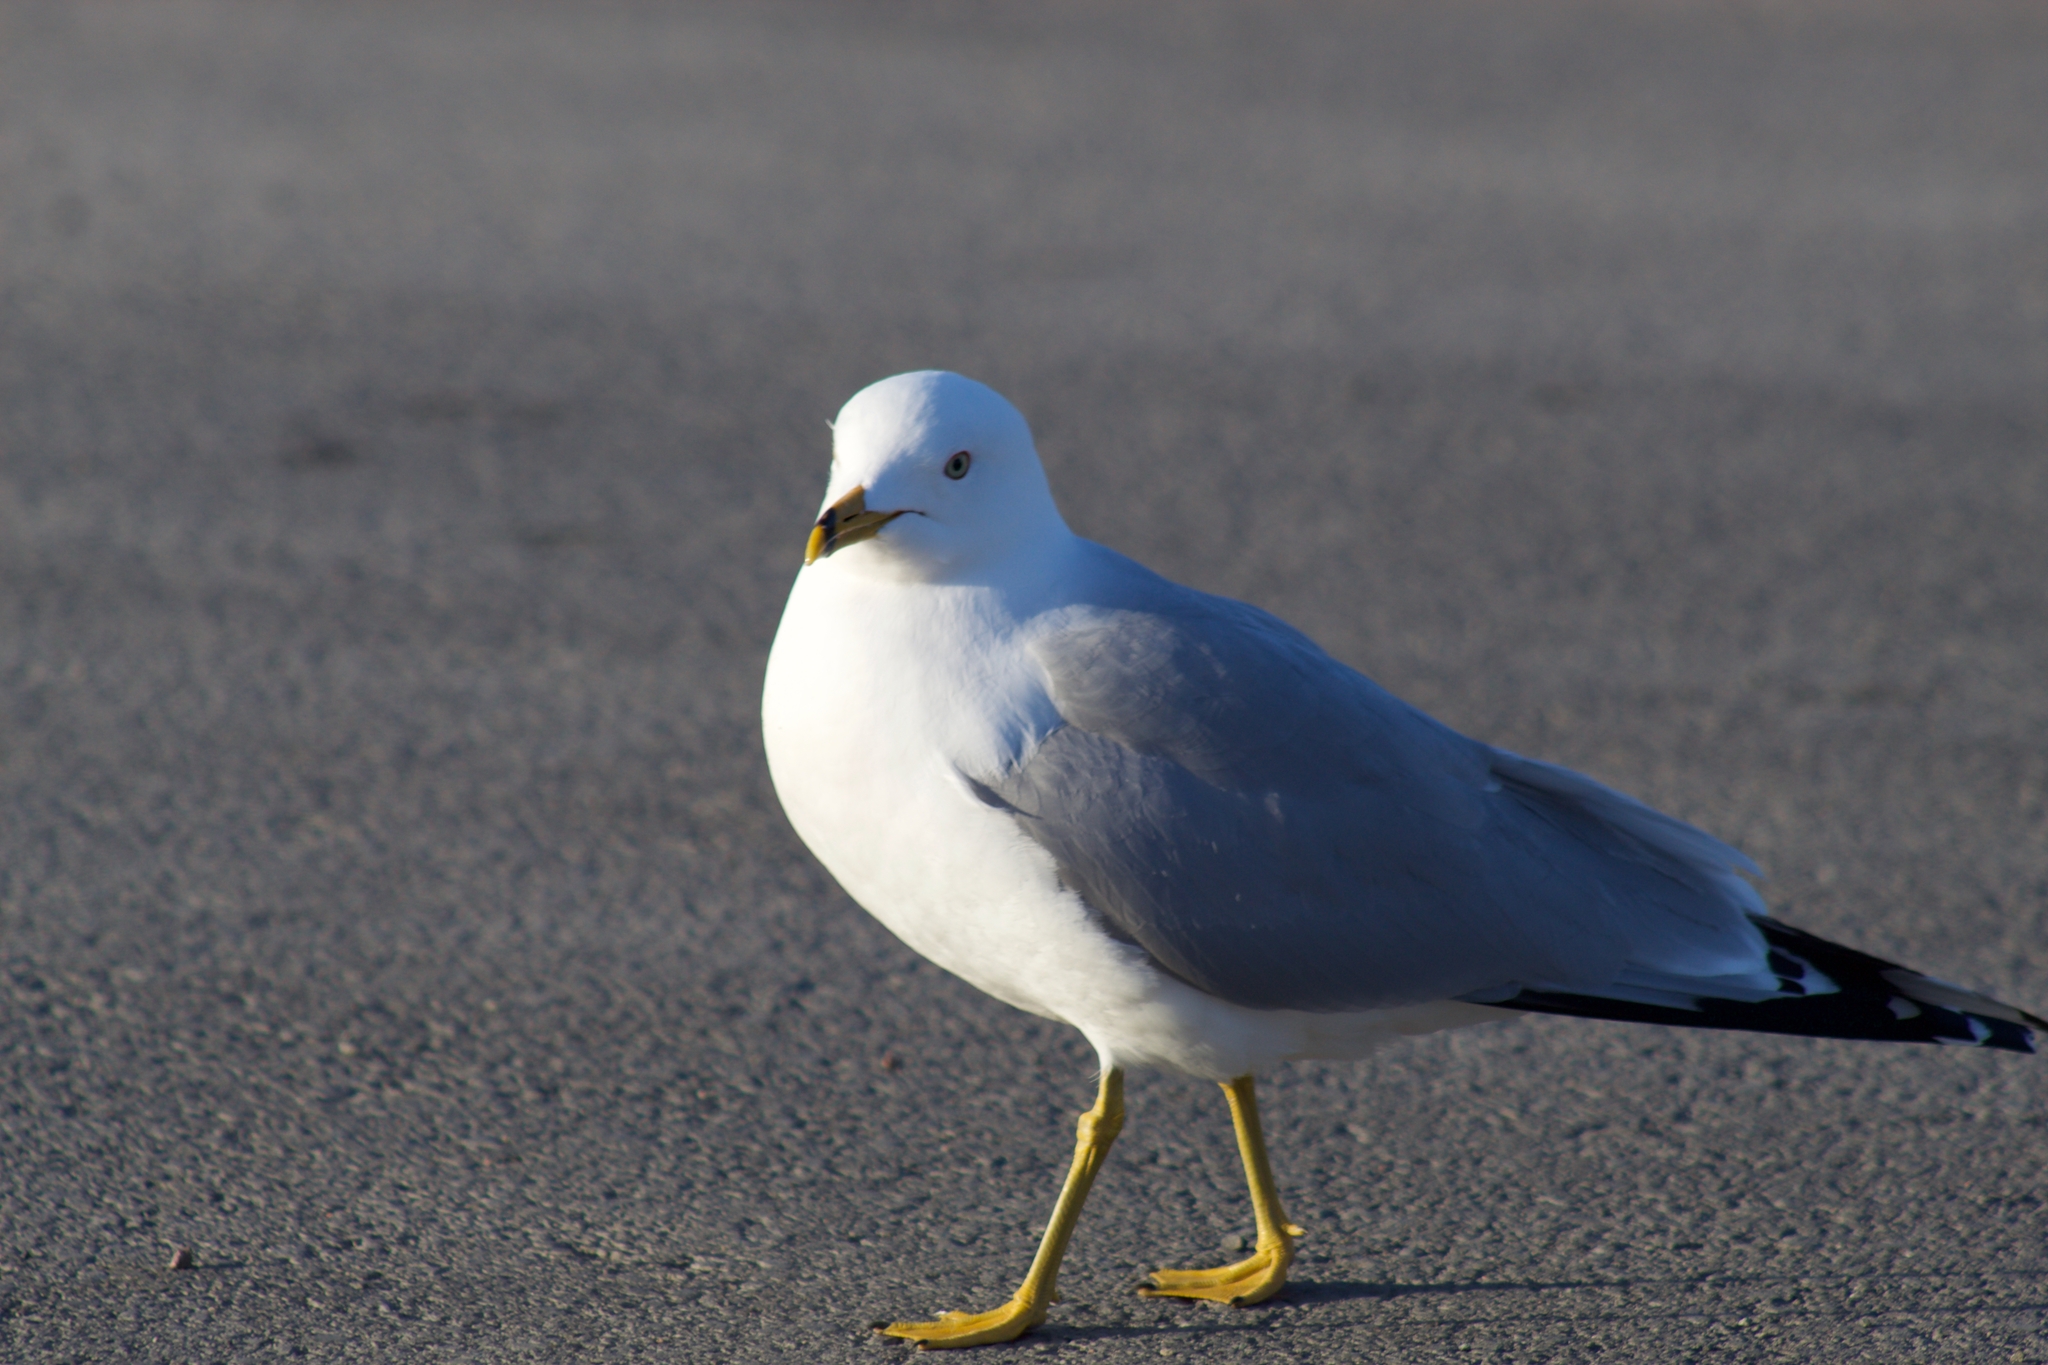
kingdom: Animalia
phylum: Chordata
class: Aves
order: Charadriiformes
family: Laridae
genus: Larus
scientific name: Larus delawarensis
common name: Ring-billed gull
